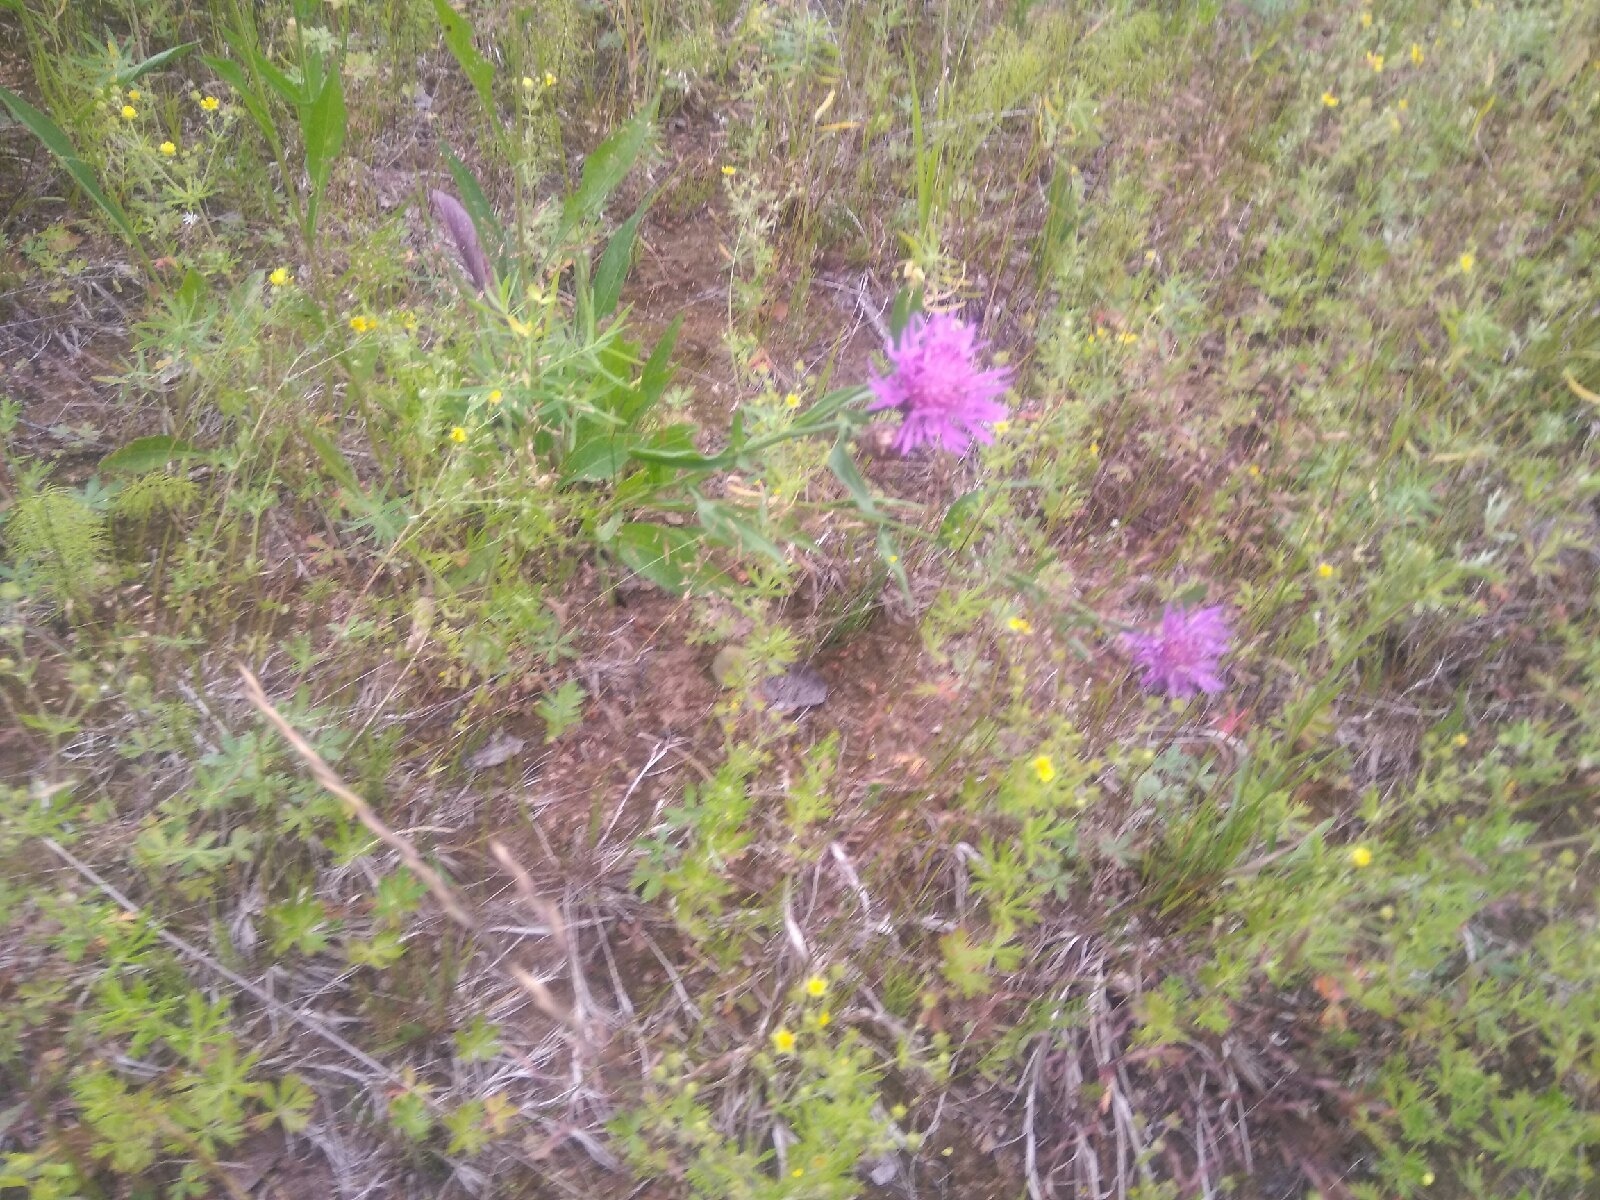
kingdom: Plantae
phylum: Tracheophyta
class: Magnoliopsida
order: Asterales
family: Asteraceae
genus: Centaurea
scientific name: Centaurea jacea
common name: Brown knapweed
